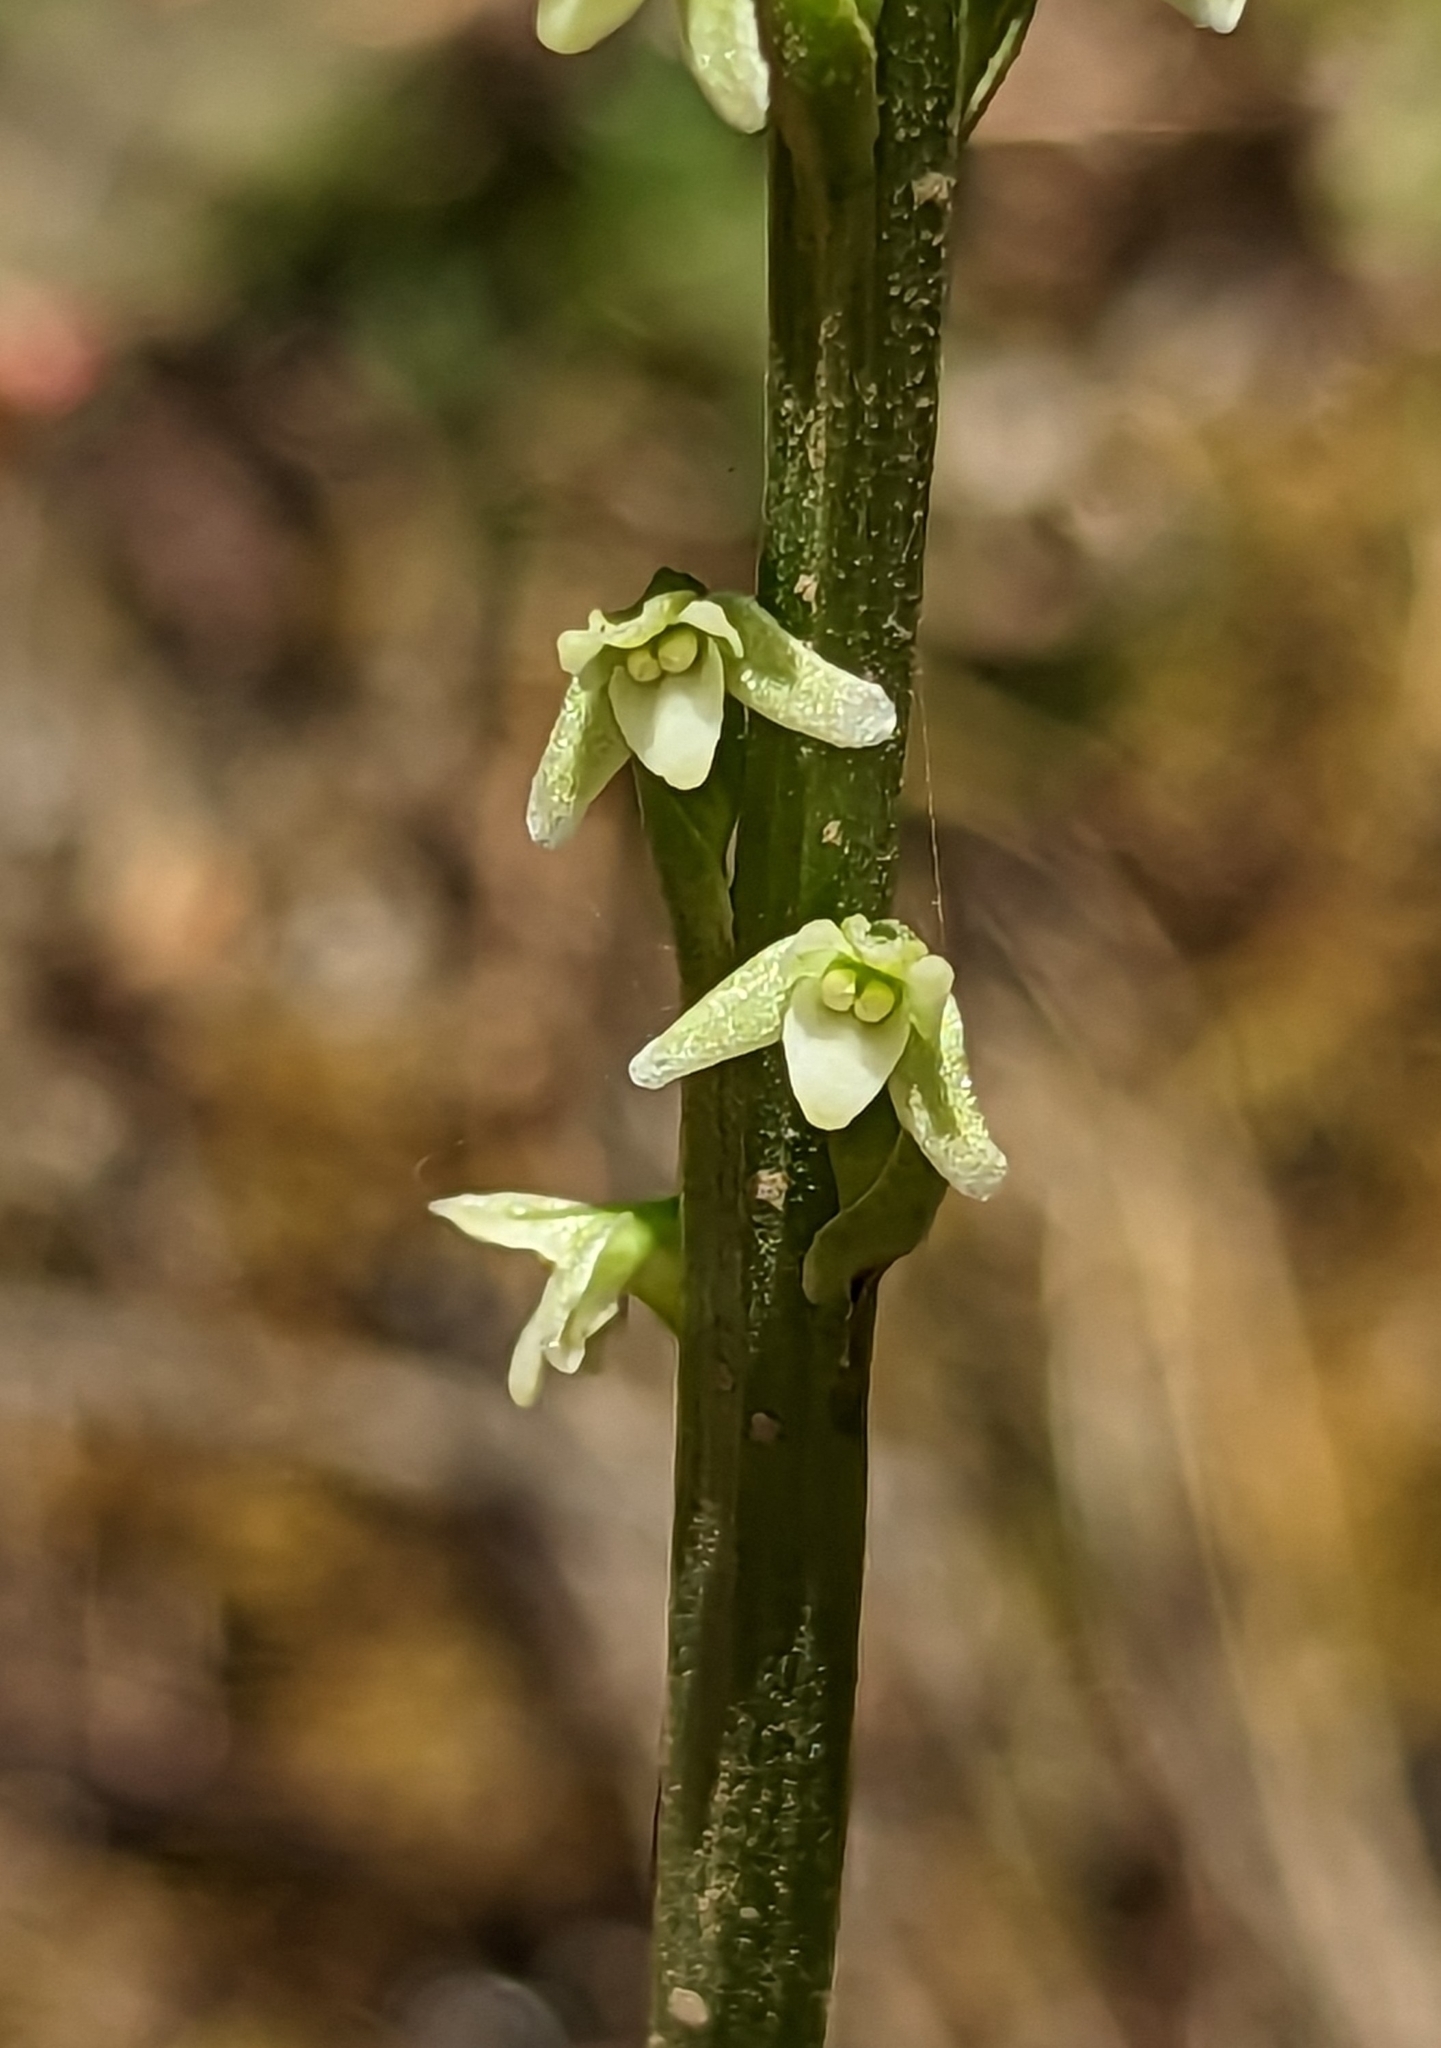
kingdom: Plantae
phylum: Tracheophyta
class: Liliopsida
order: Asparagales
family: Orchidaceae
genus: Platanthera
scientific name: Platanthera ephemerantha
